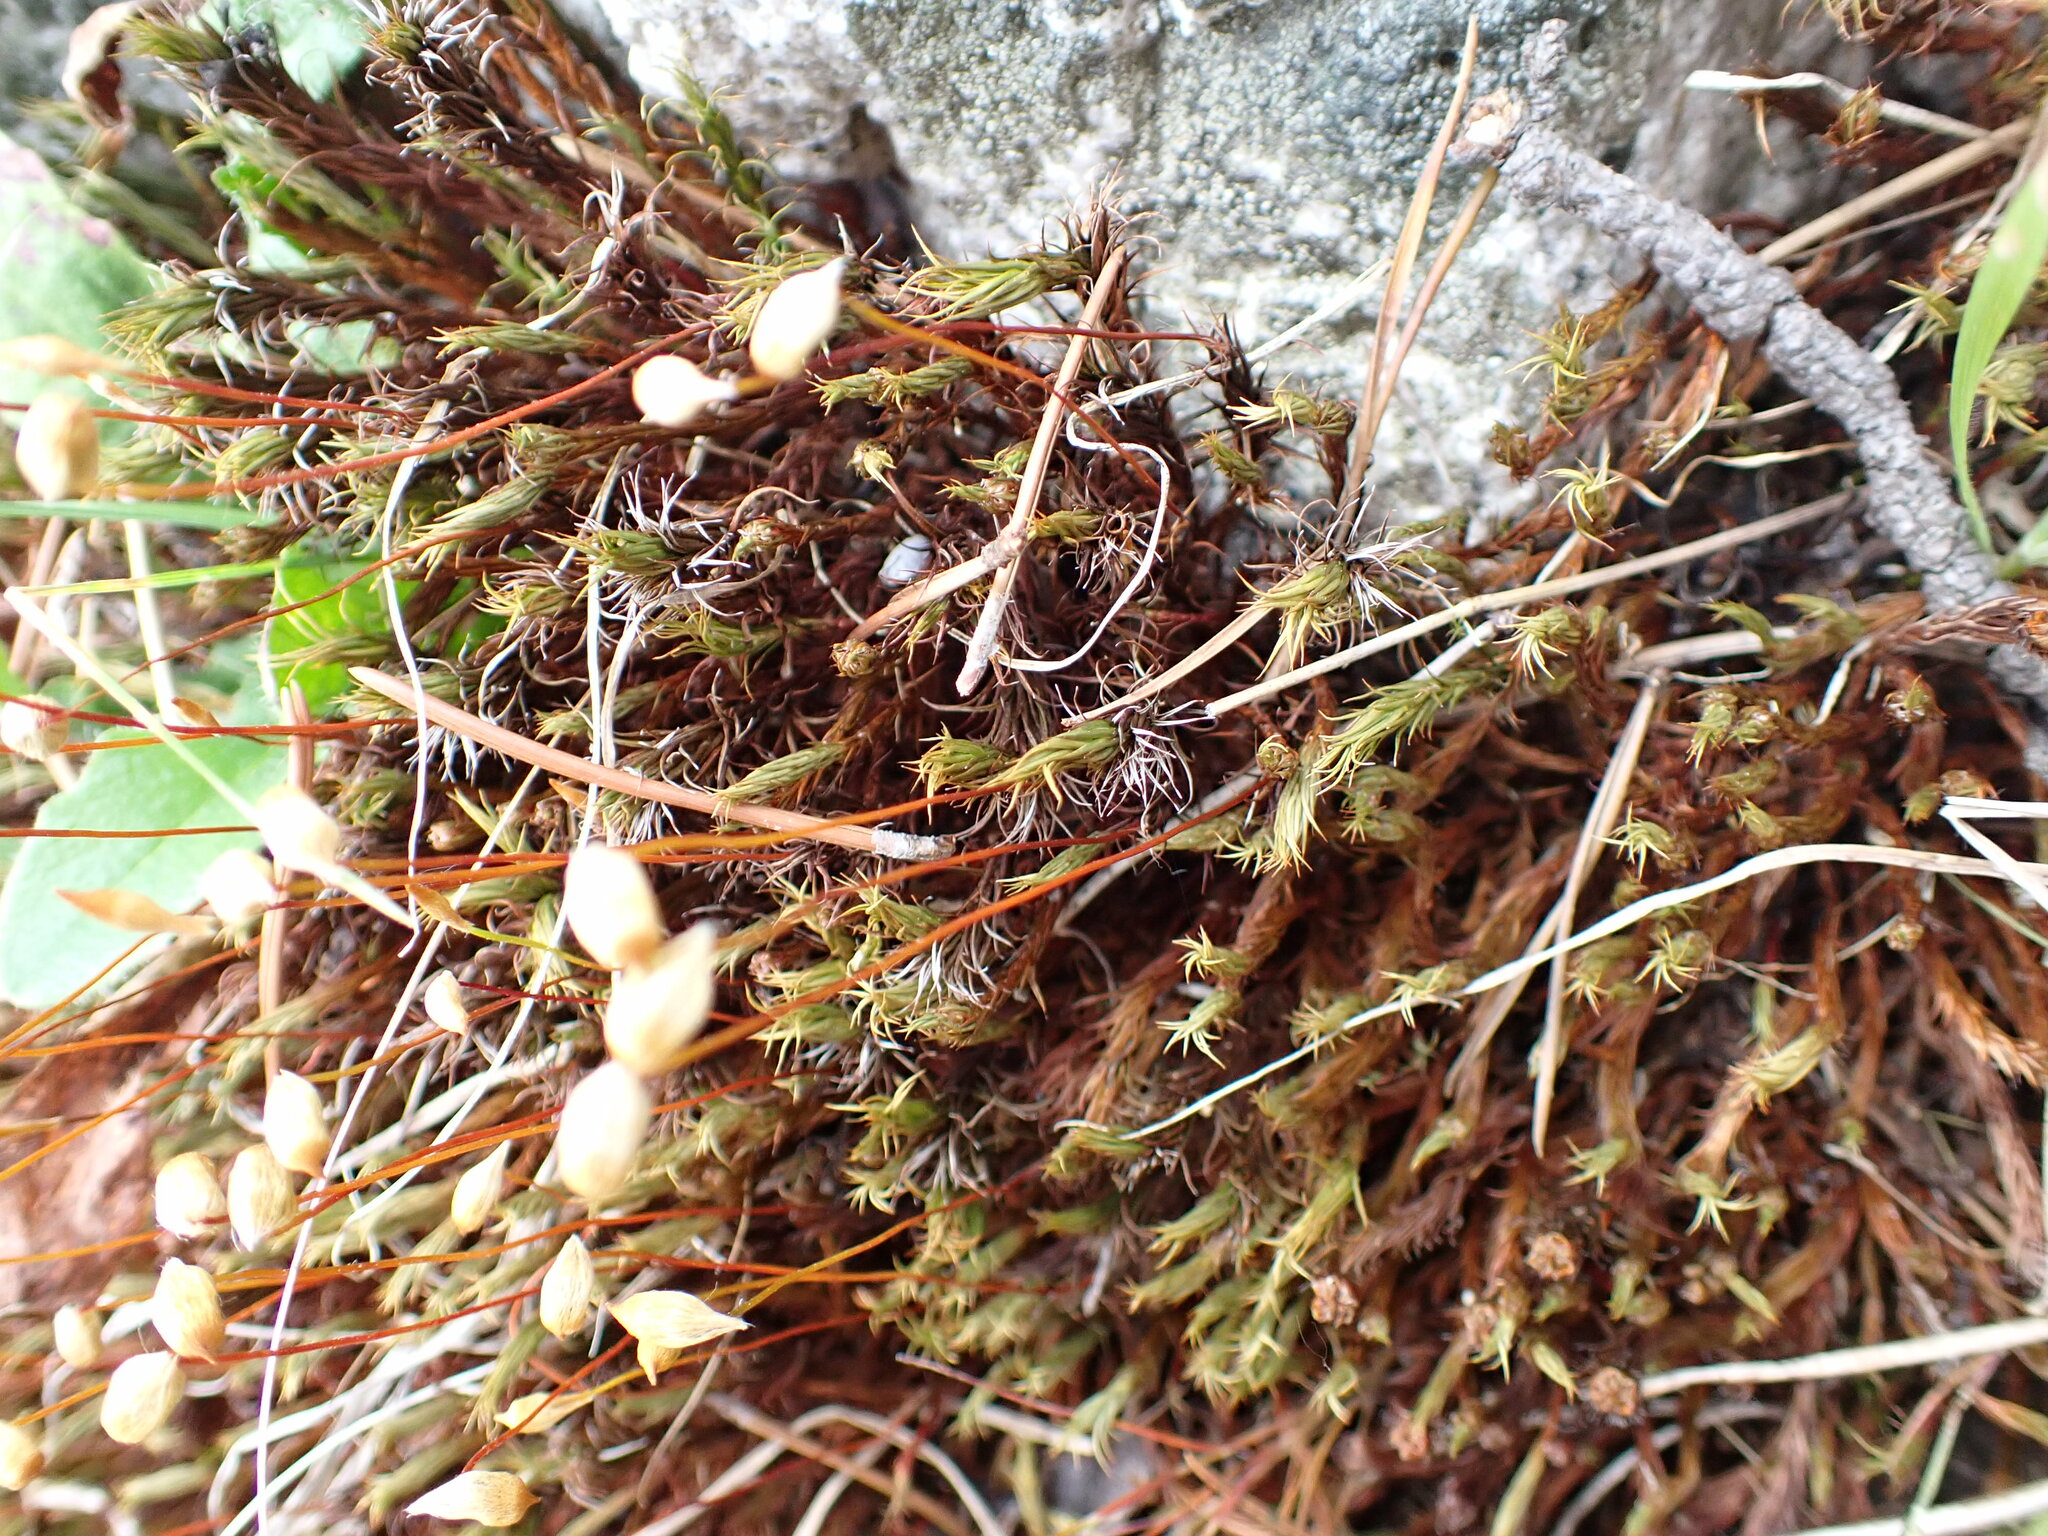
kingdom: Plantae
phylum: Bryophyta
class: Polytrichopsida
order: Polytrichales
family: Polytrichaceae
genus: Polytrichum
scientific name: Polytrichum juniperinum
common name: Juniper haircap moss
